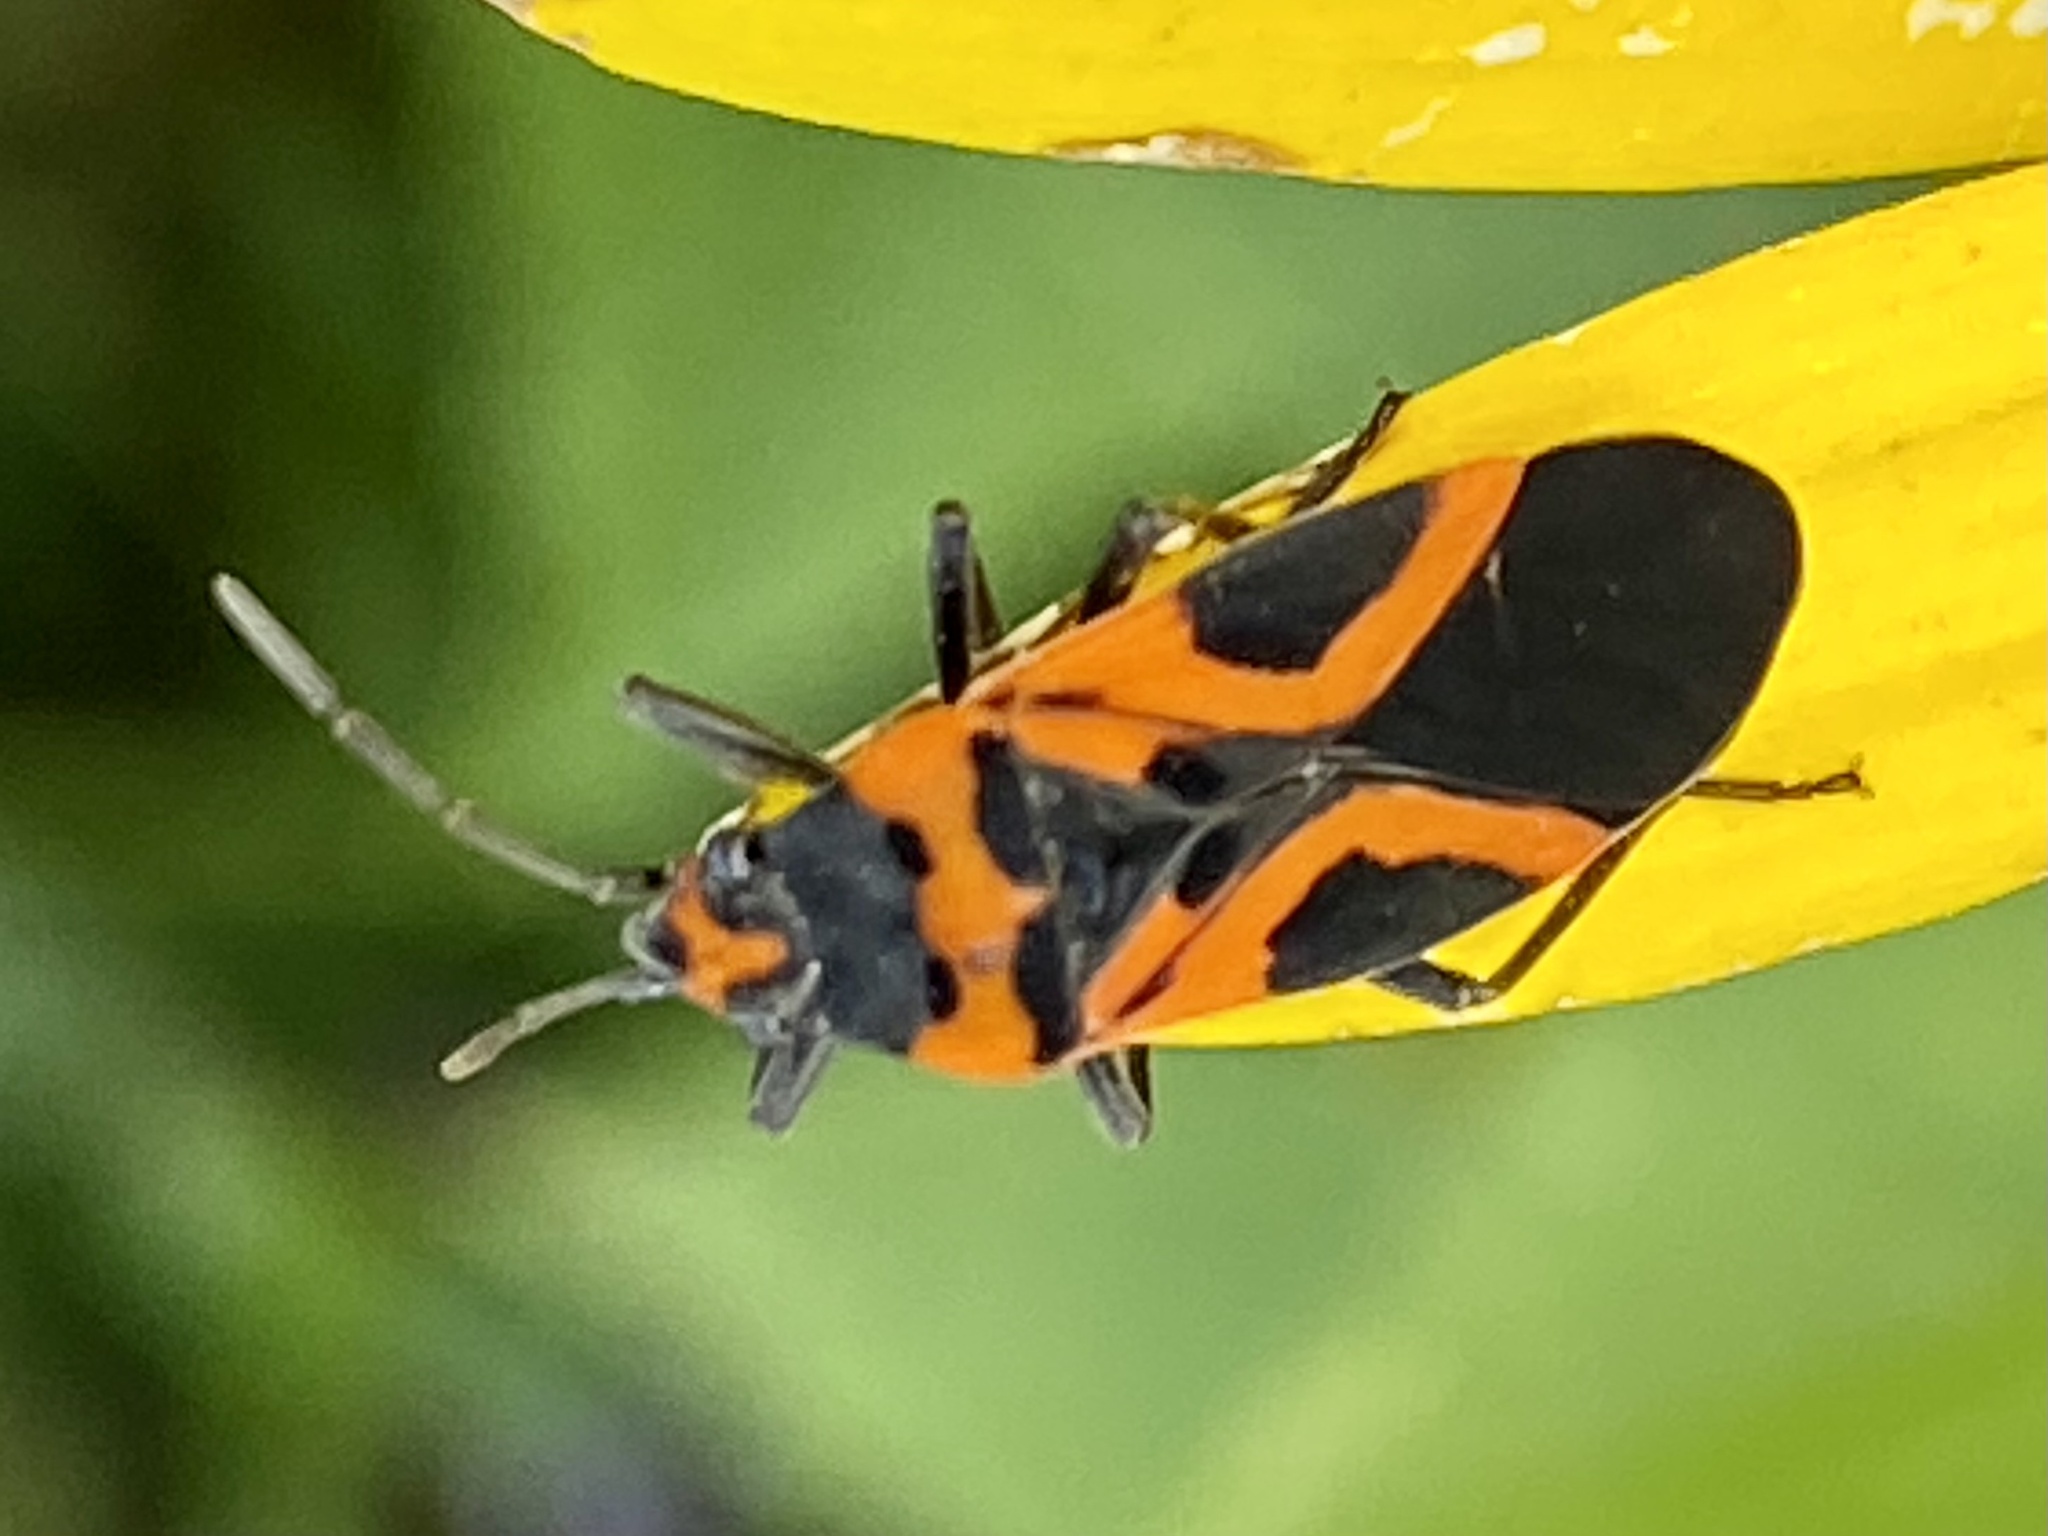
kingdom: Animalia
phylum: Arthropoda
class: Insecta
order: Hemiptera
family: Lygaeidae
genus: Lygaeus
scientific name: Lygaeus turcicus
